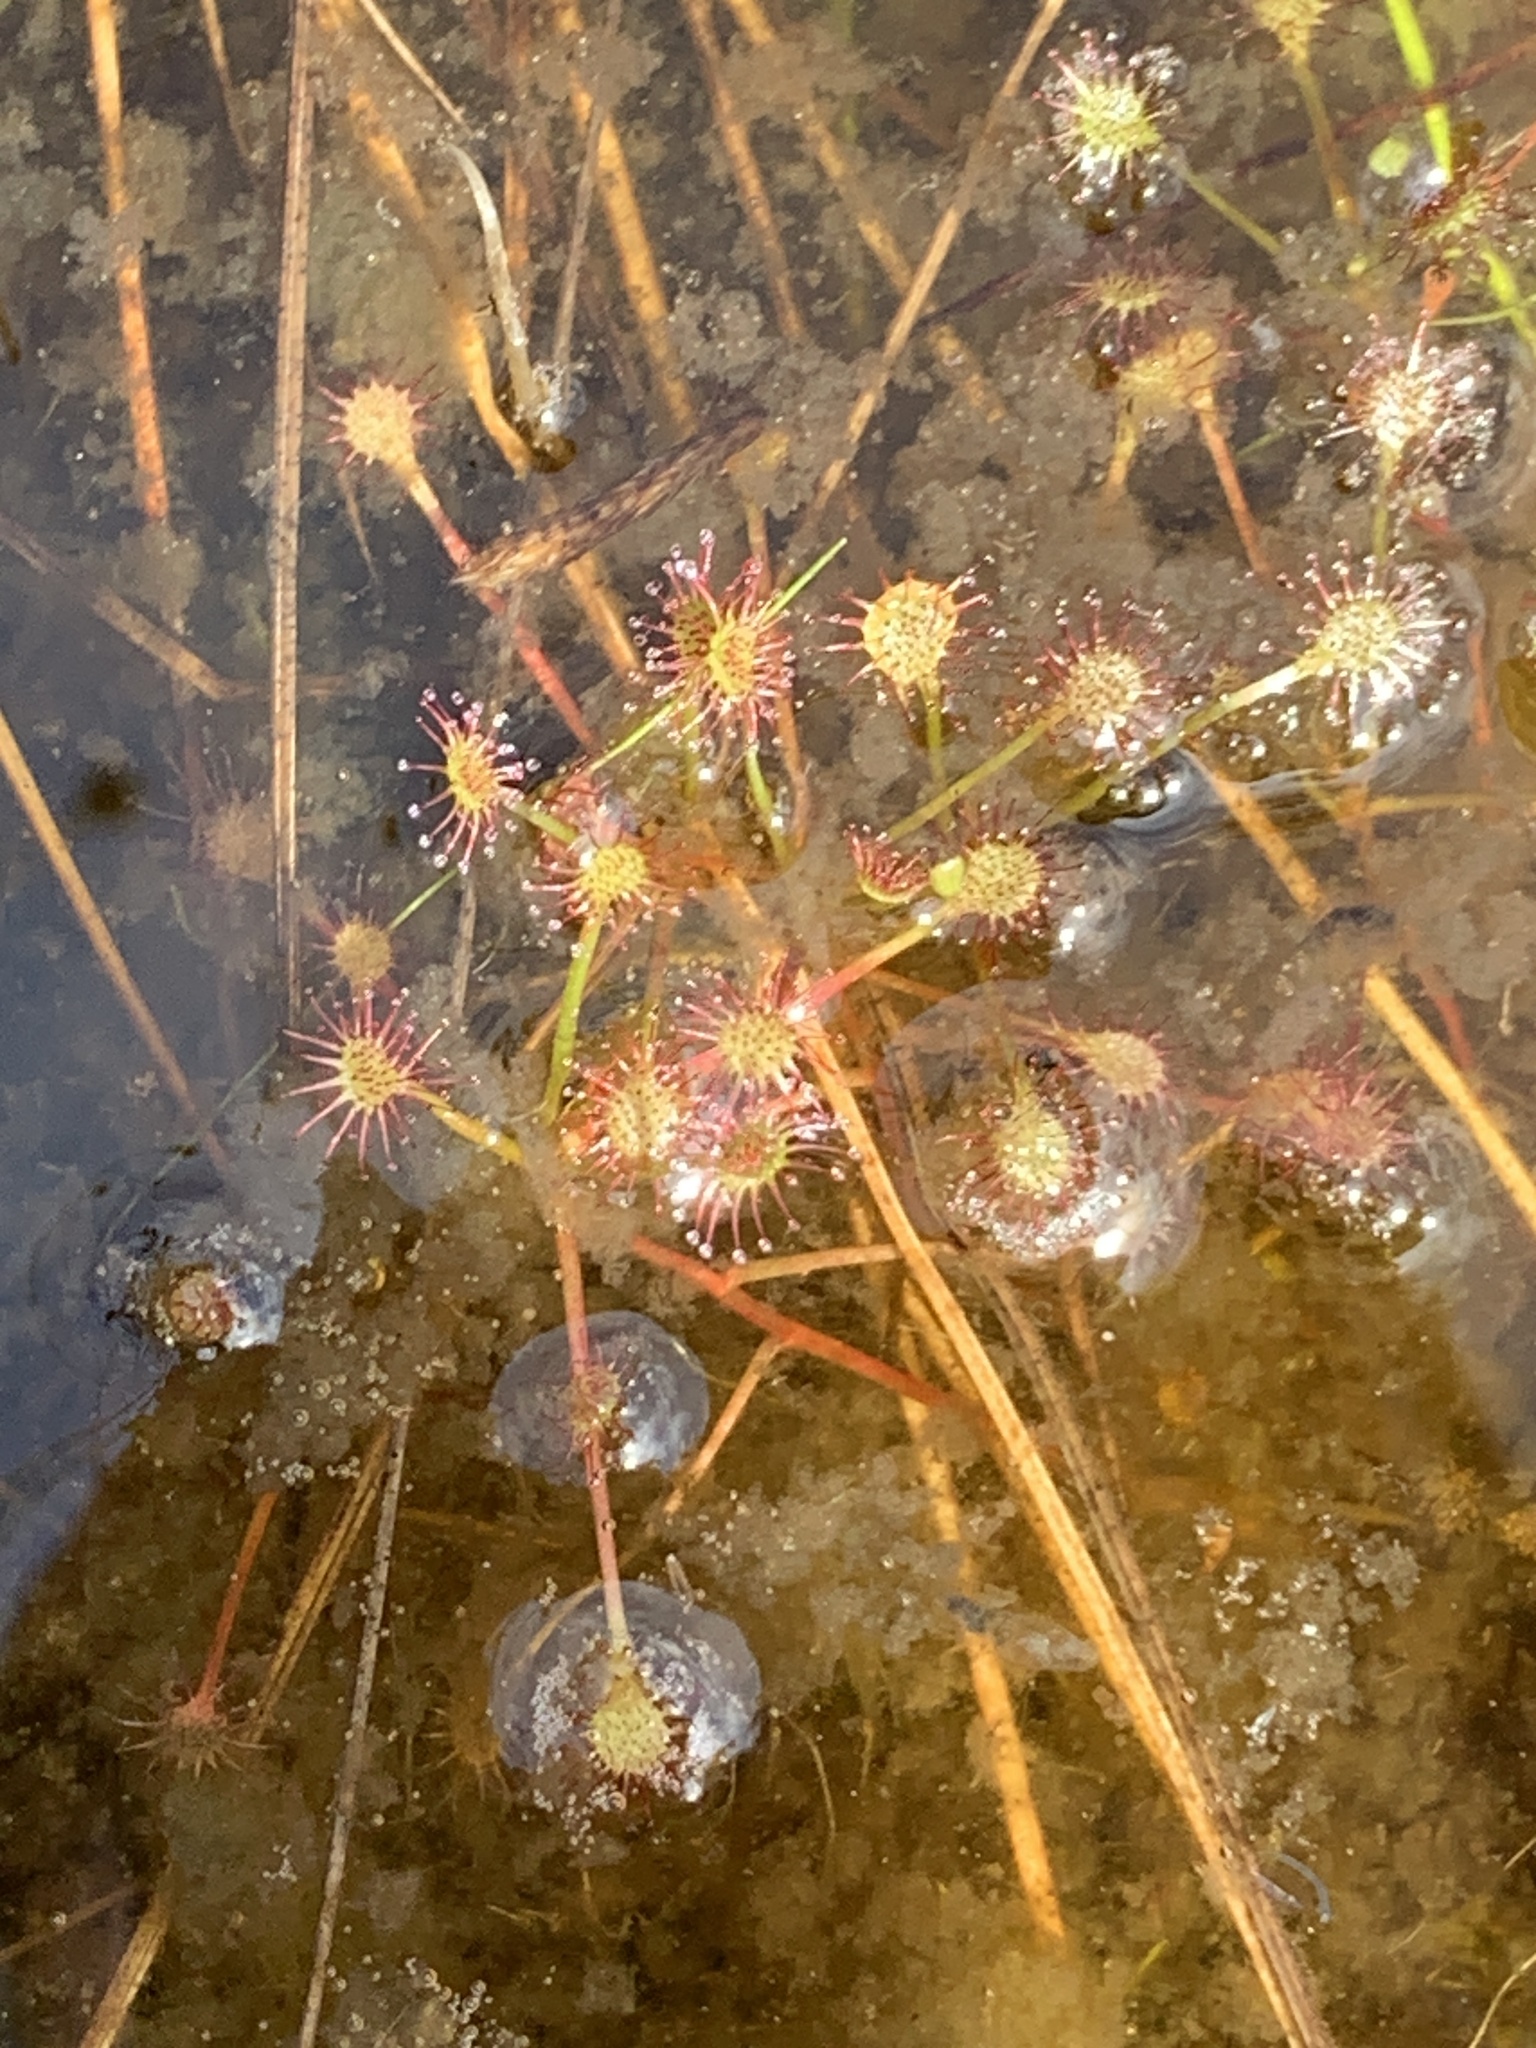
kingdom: Plantae
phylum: Tracheophyta
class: Magnoliopsida
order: Caryophyllales
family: Droseraceae
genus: Drosera
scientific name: Drosera rotundifolia
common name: Round-leaved sundew
